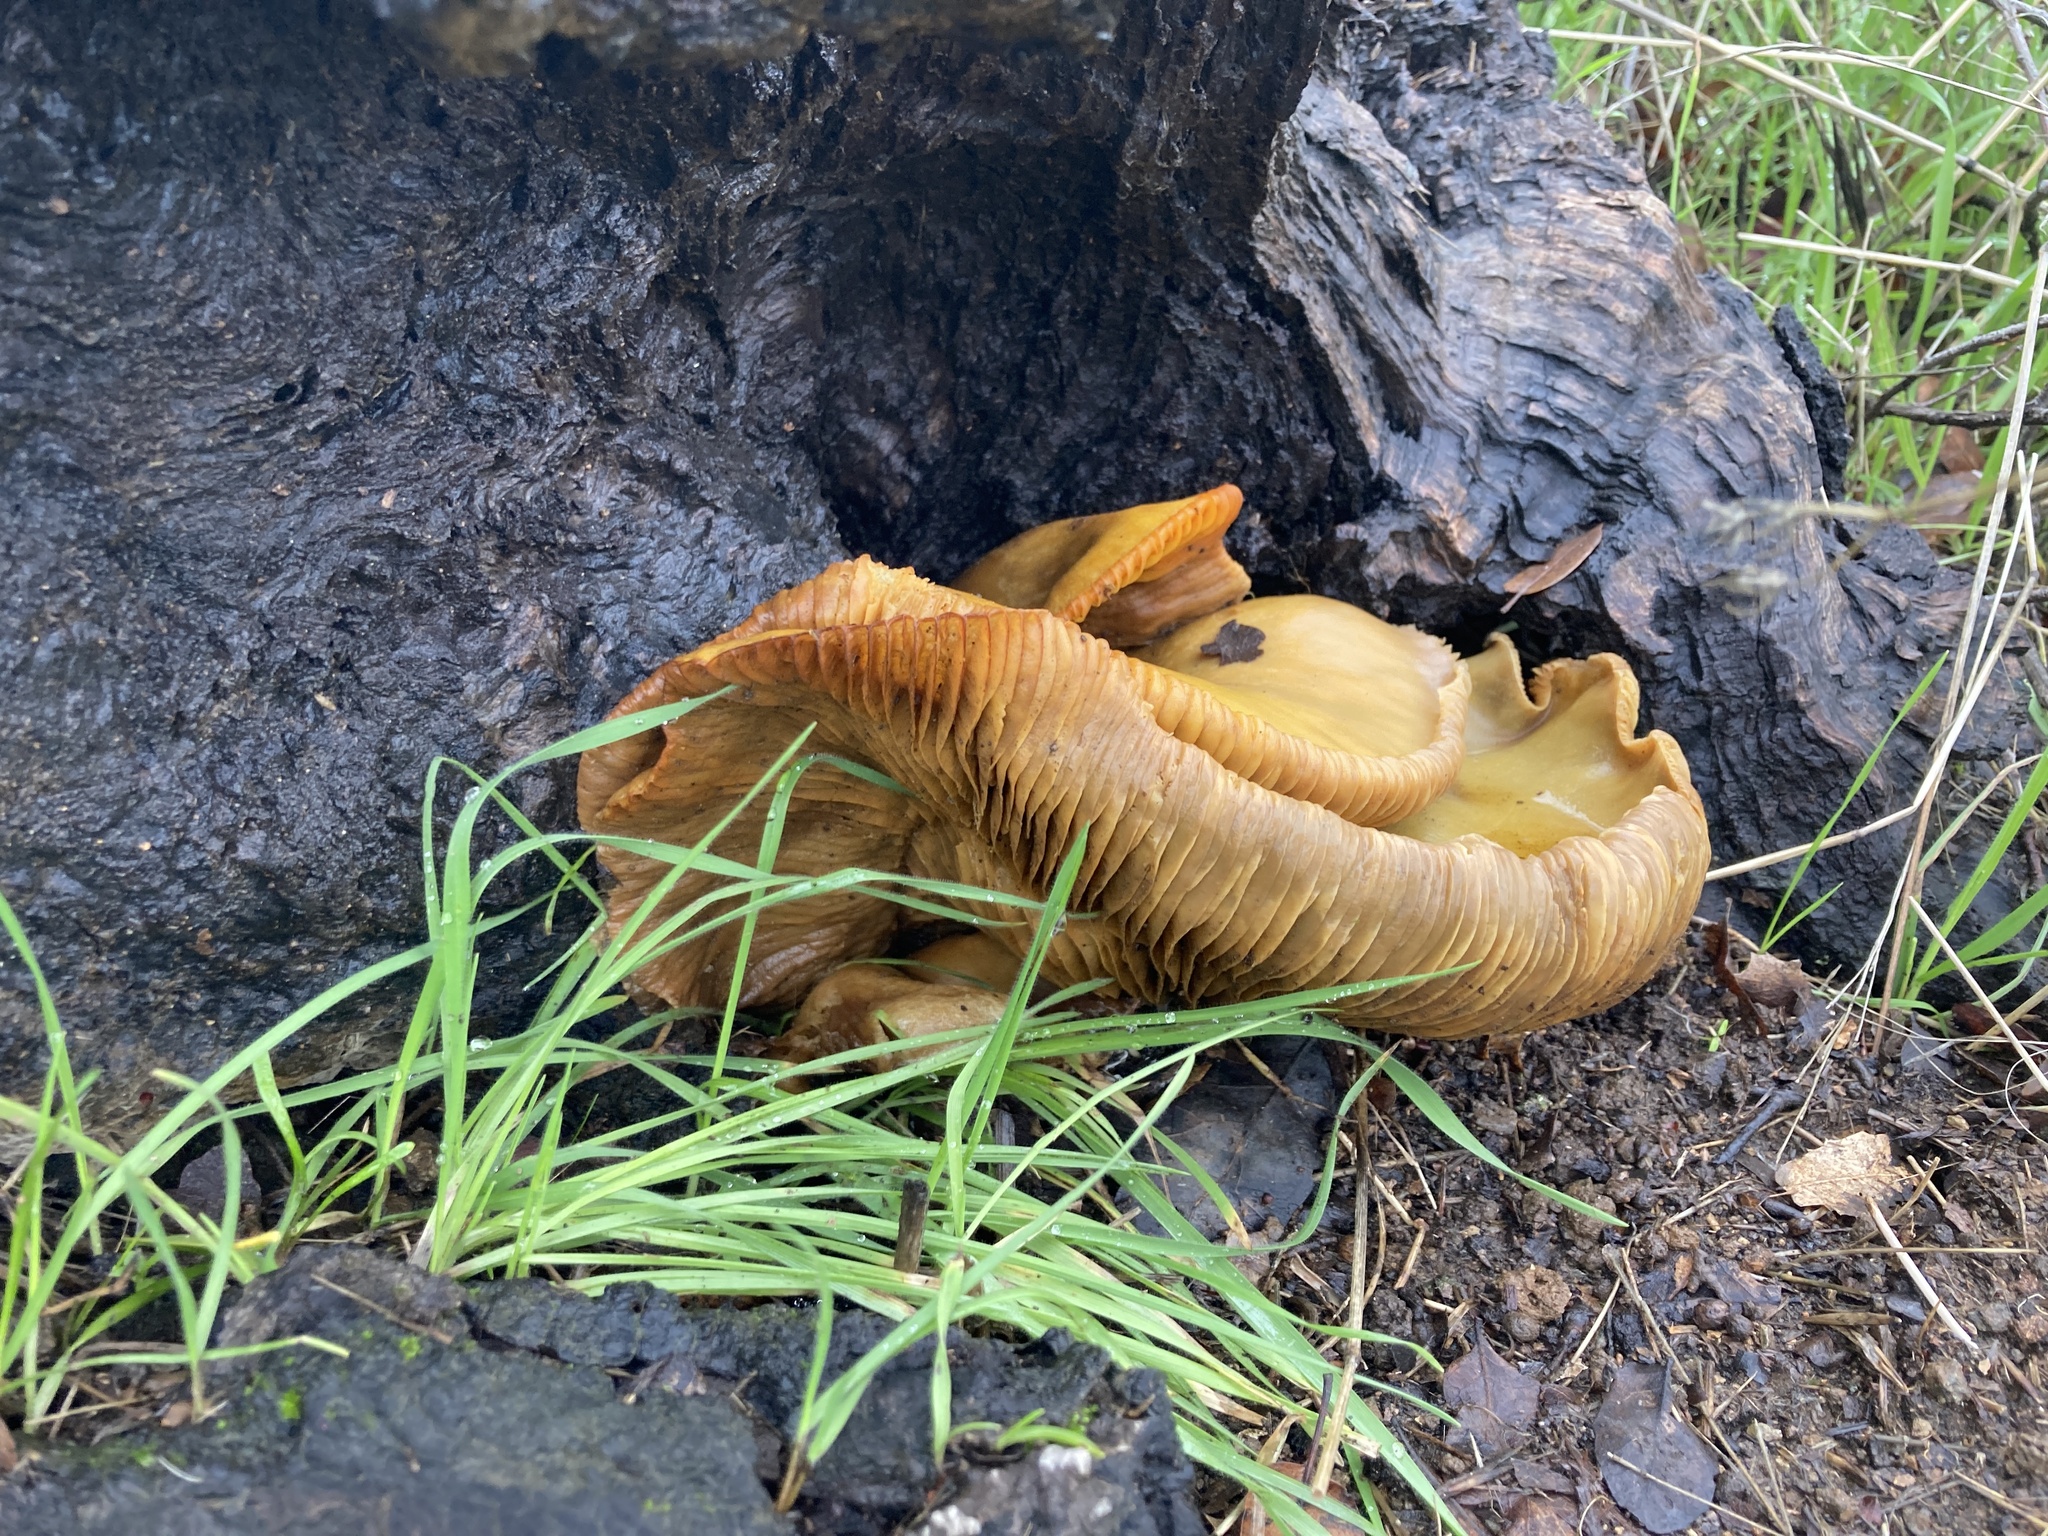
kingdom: Fungi
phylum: Basidiomycota
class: Agaricomycetes
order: Agaricales
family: Omphalotaceae
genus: Omphalotus
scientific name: Omphalotus olivascens
